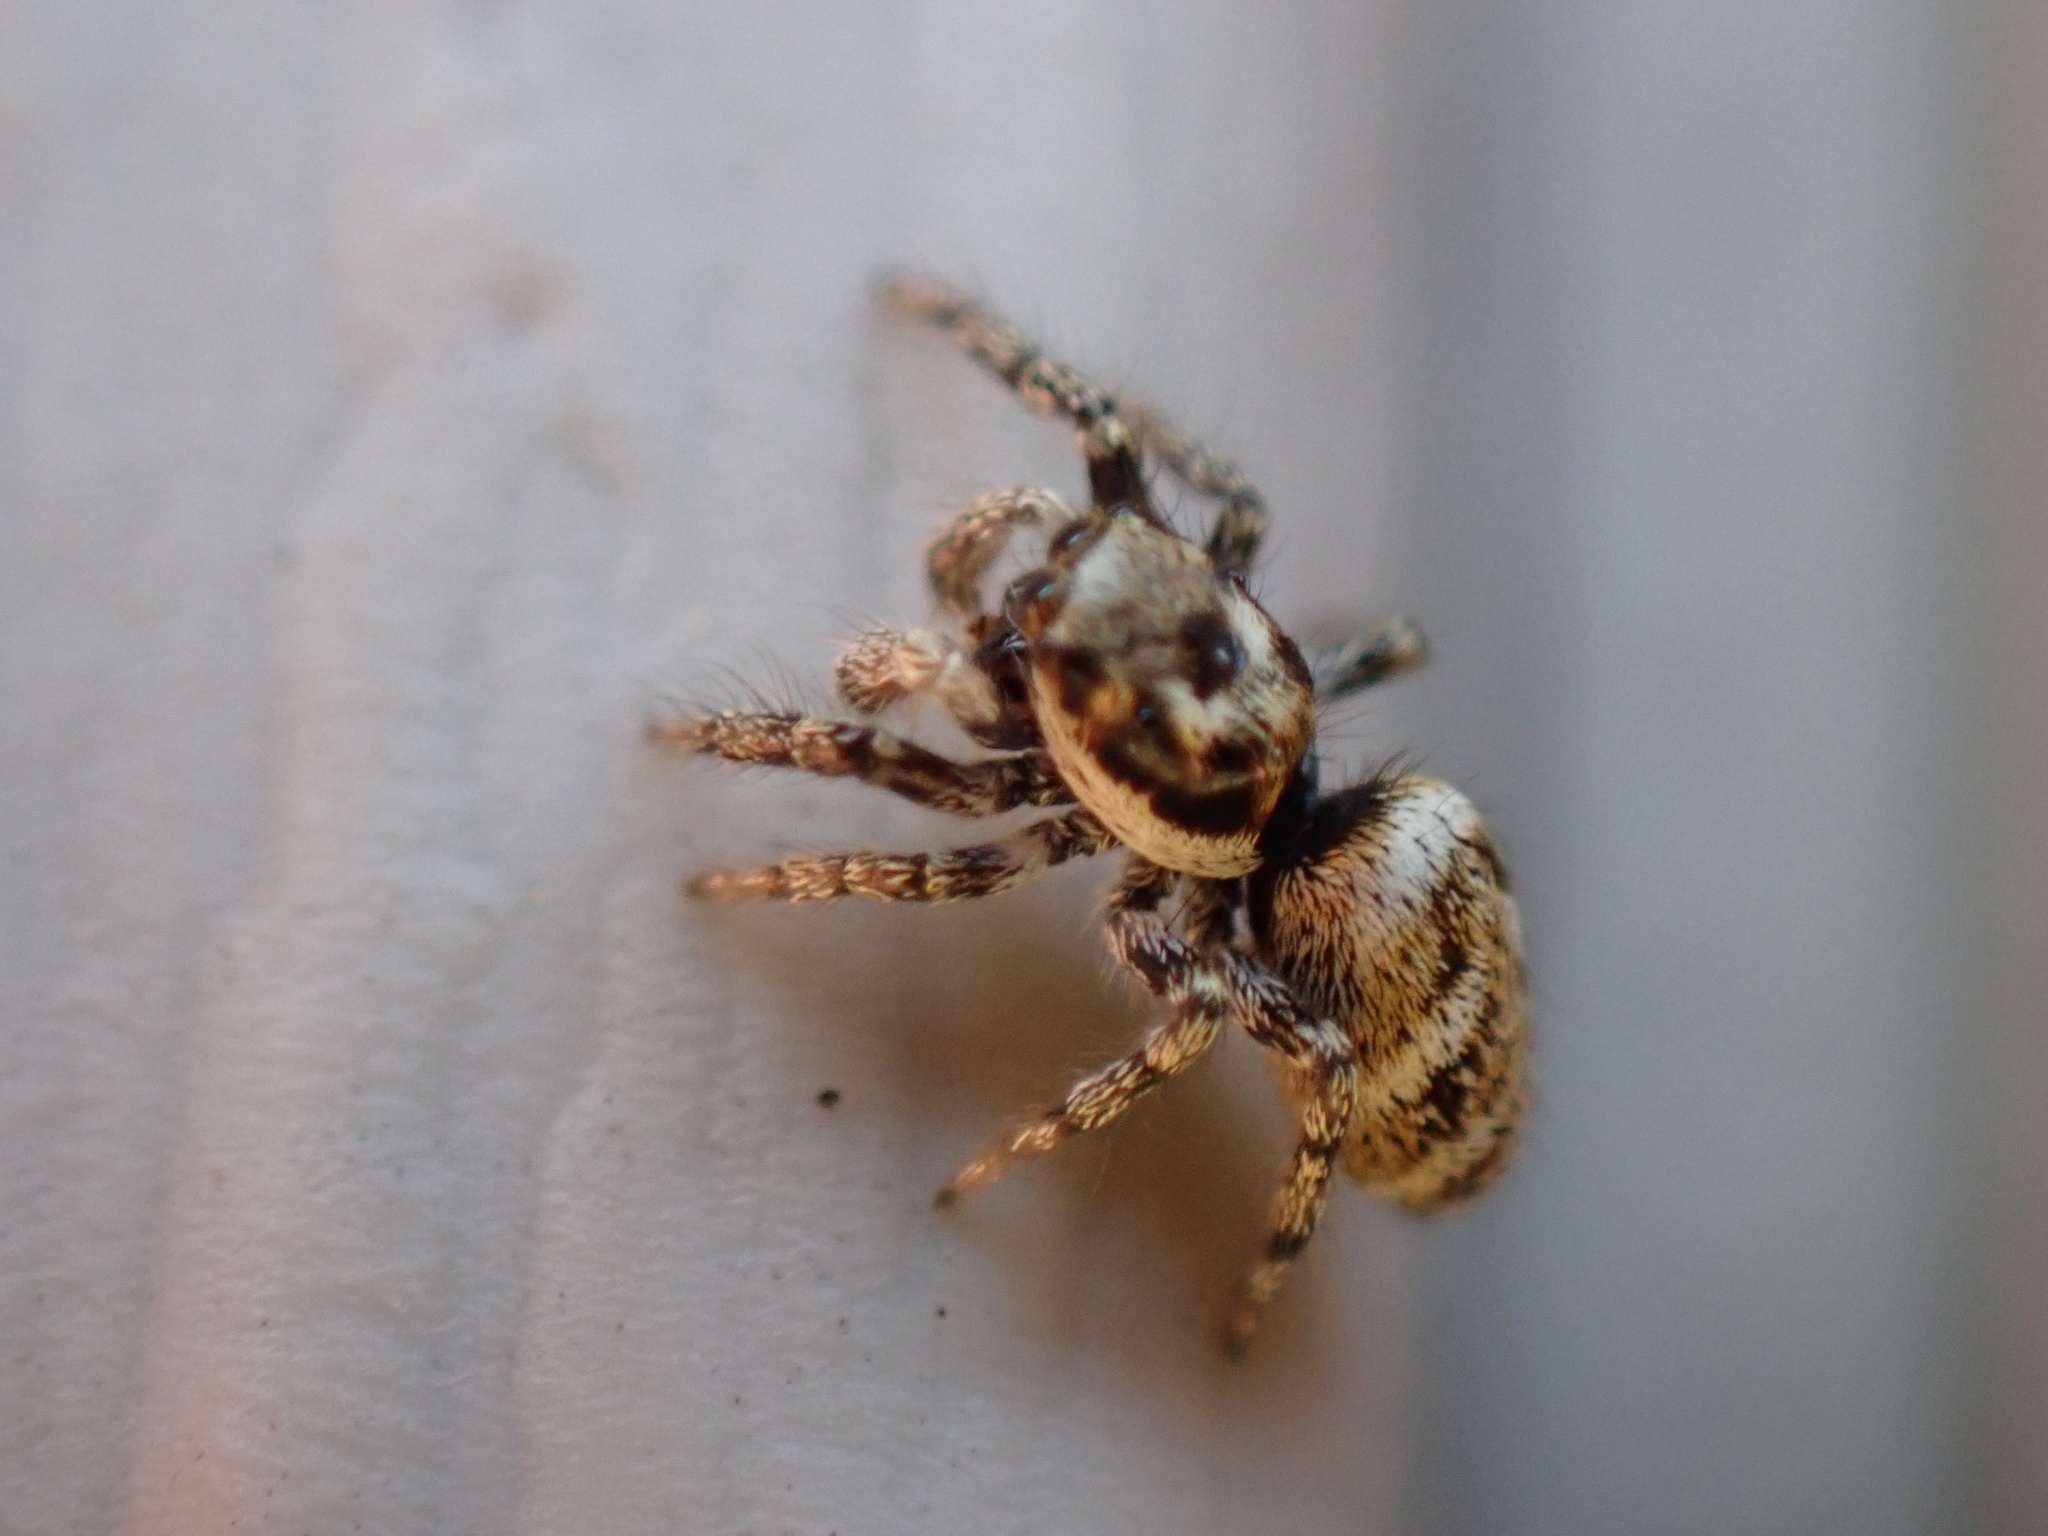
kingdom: Animalia
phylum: Arthropoda
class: Arachnida
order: Araneae
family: Salticidae
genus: Salticus
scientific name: Salticus scenicus
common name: Zebra jumper
